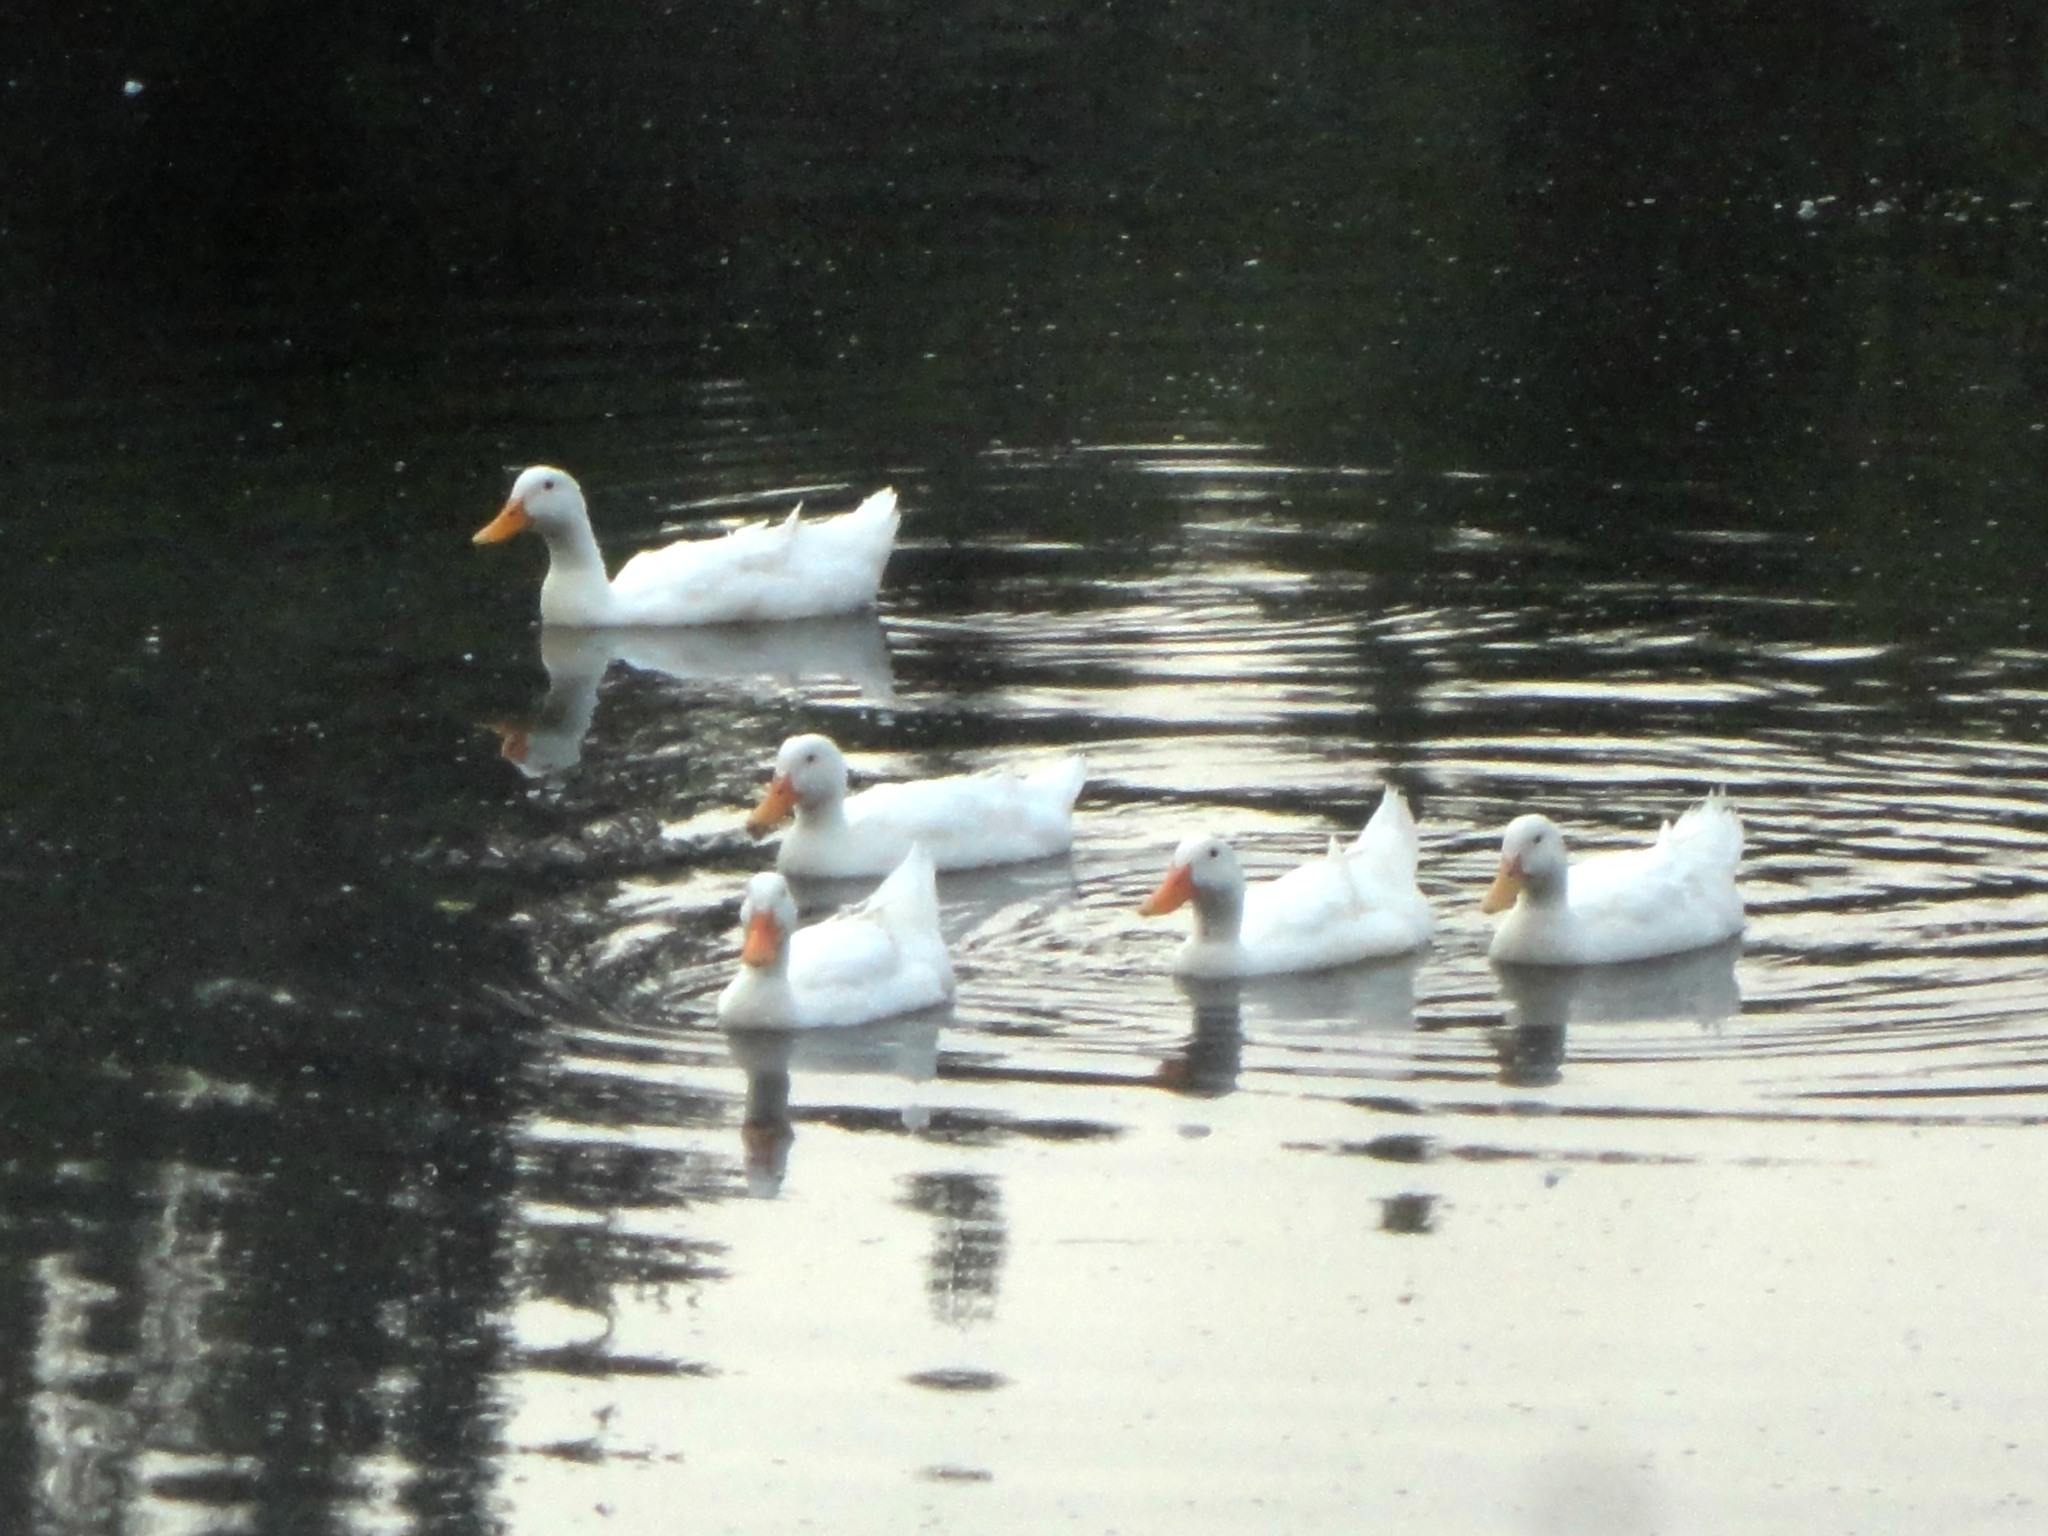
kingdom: Animalia
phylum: Chordata
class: Aves
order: Anseriformes
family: Anatidae
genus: Anas
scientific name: Anas platyrhynchos
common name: Mallard
